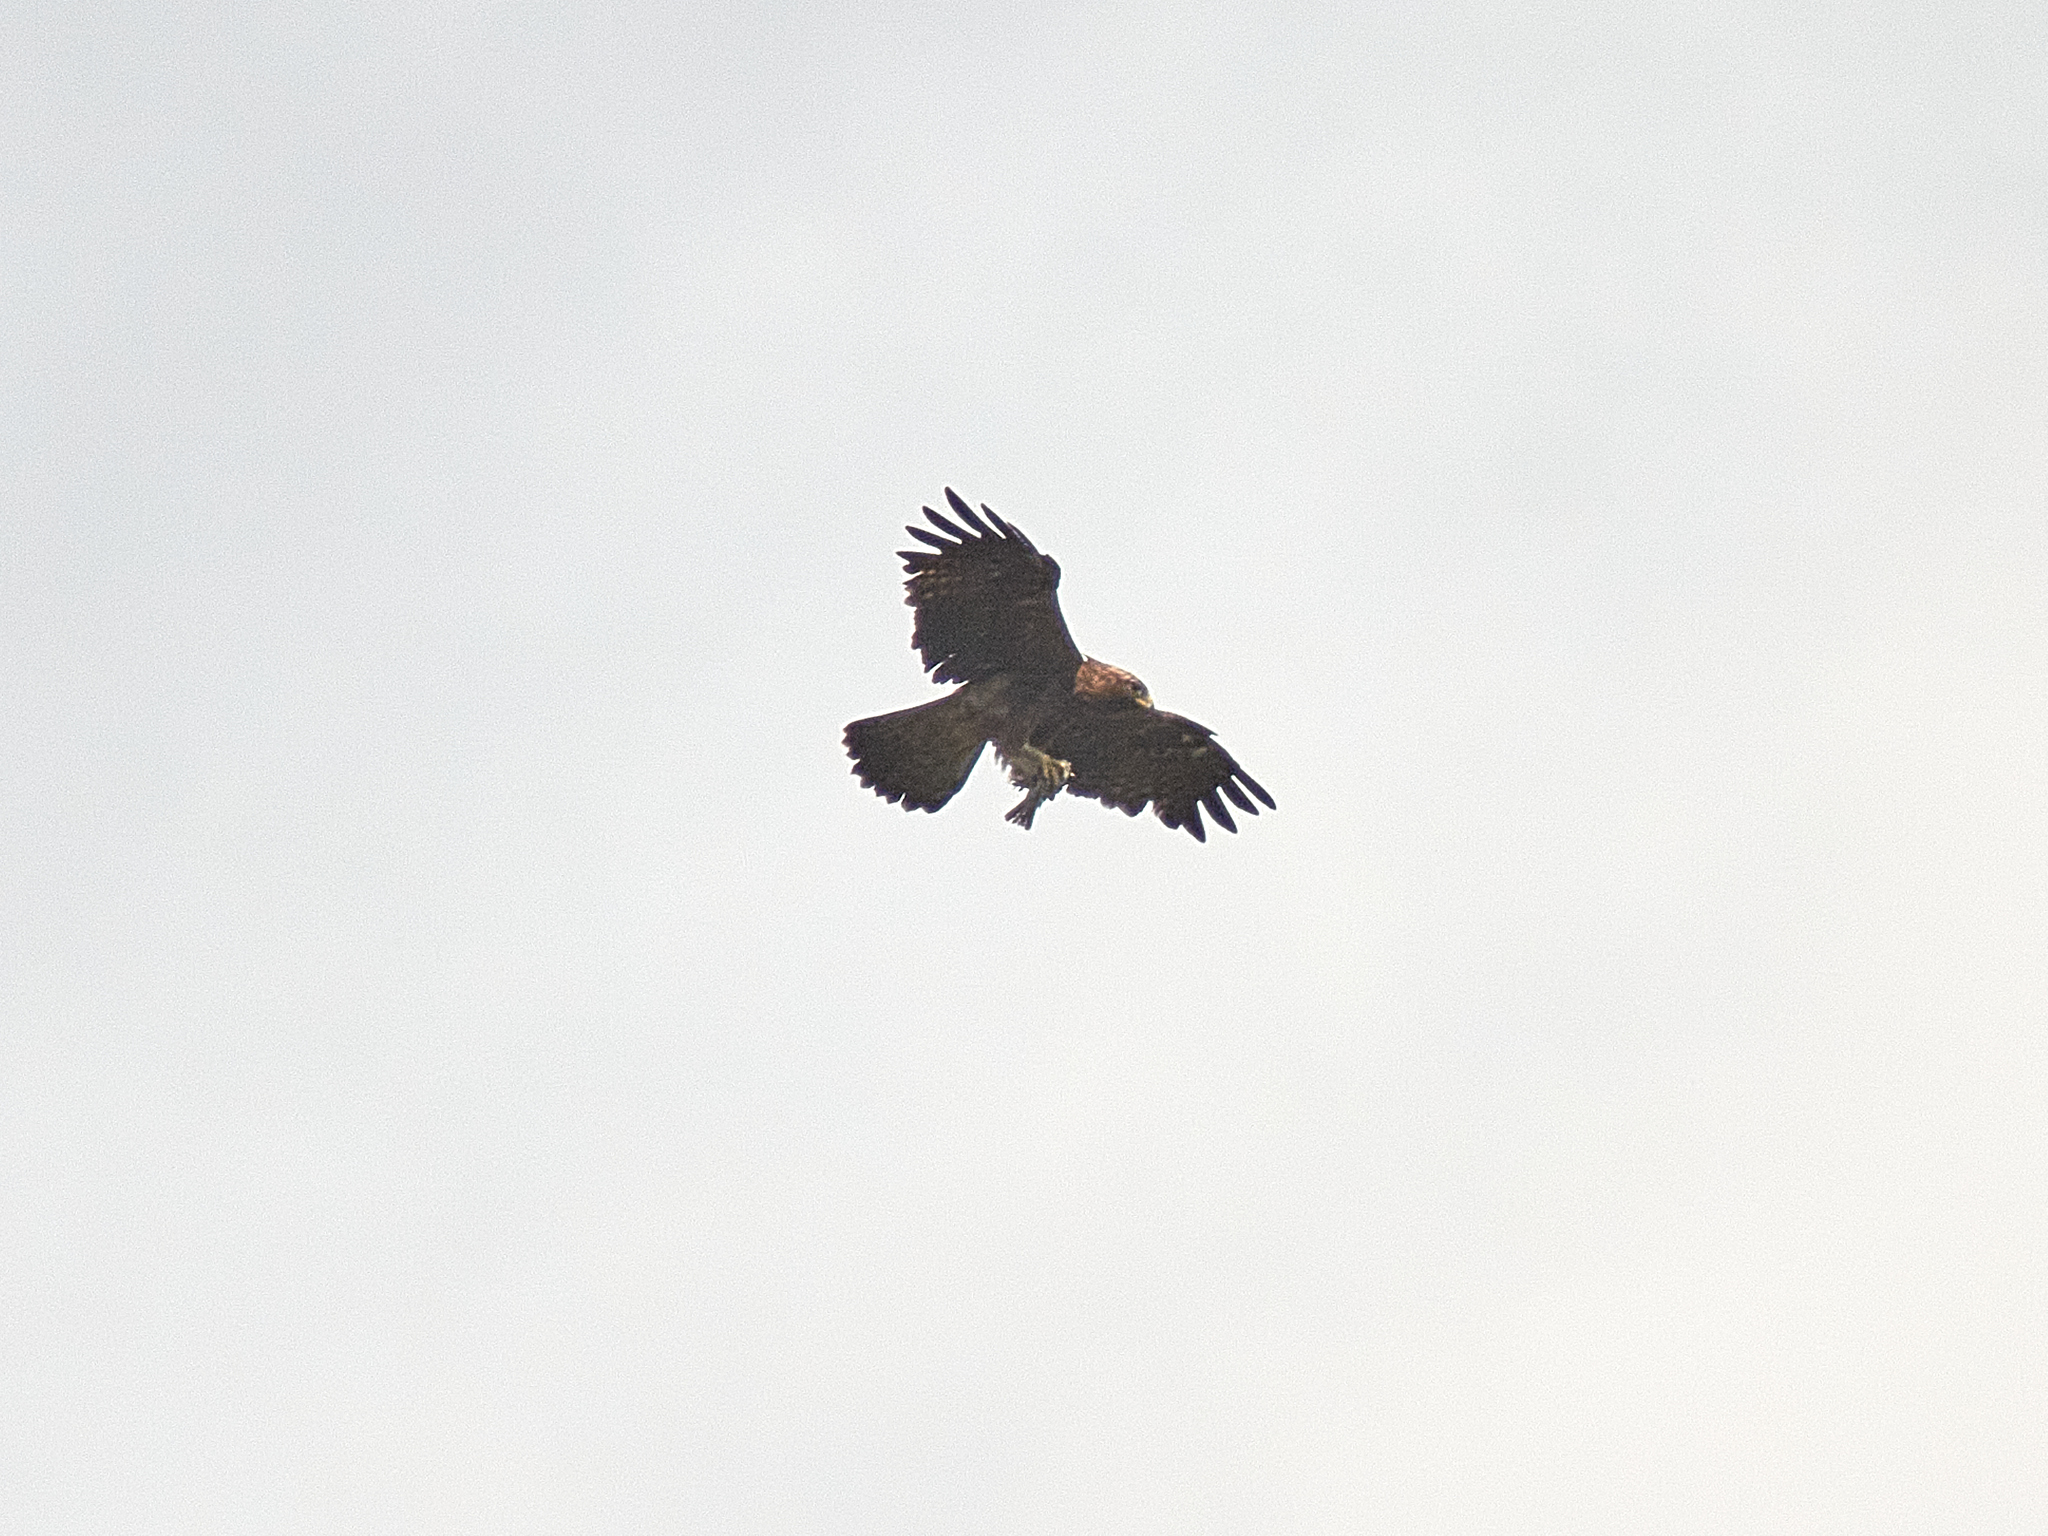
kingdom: Animalia
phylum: Chordata
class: Aves
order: Accipitriformes
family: Accipitridae
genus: Hieraaetus
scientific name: Hieraaetus pennatus
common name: Booted eagle
